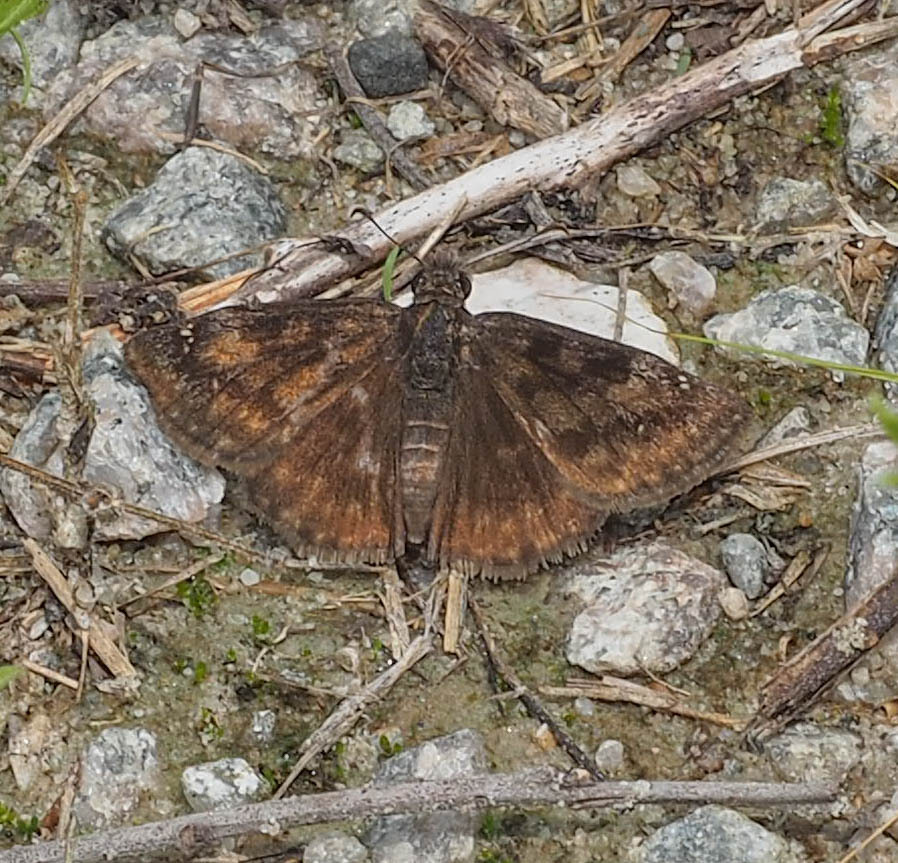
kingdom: Animalia
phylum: Arthropoda
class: Insecta
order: Lepidoptera
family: Hesperiidae
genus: Erynnis
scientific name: Erynnis baptisiae
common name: Wild indigo duskywing
